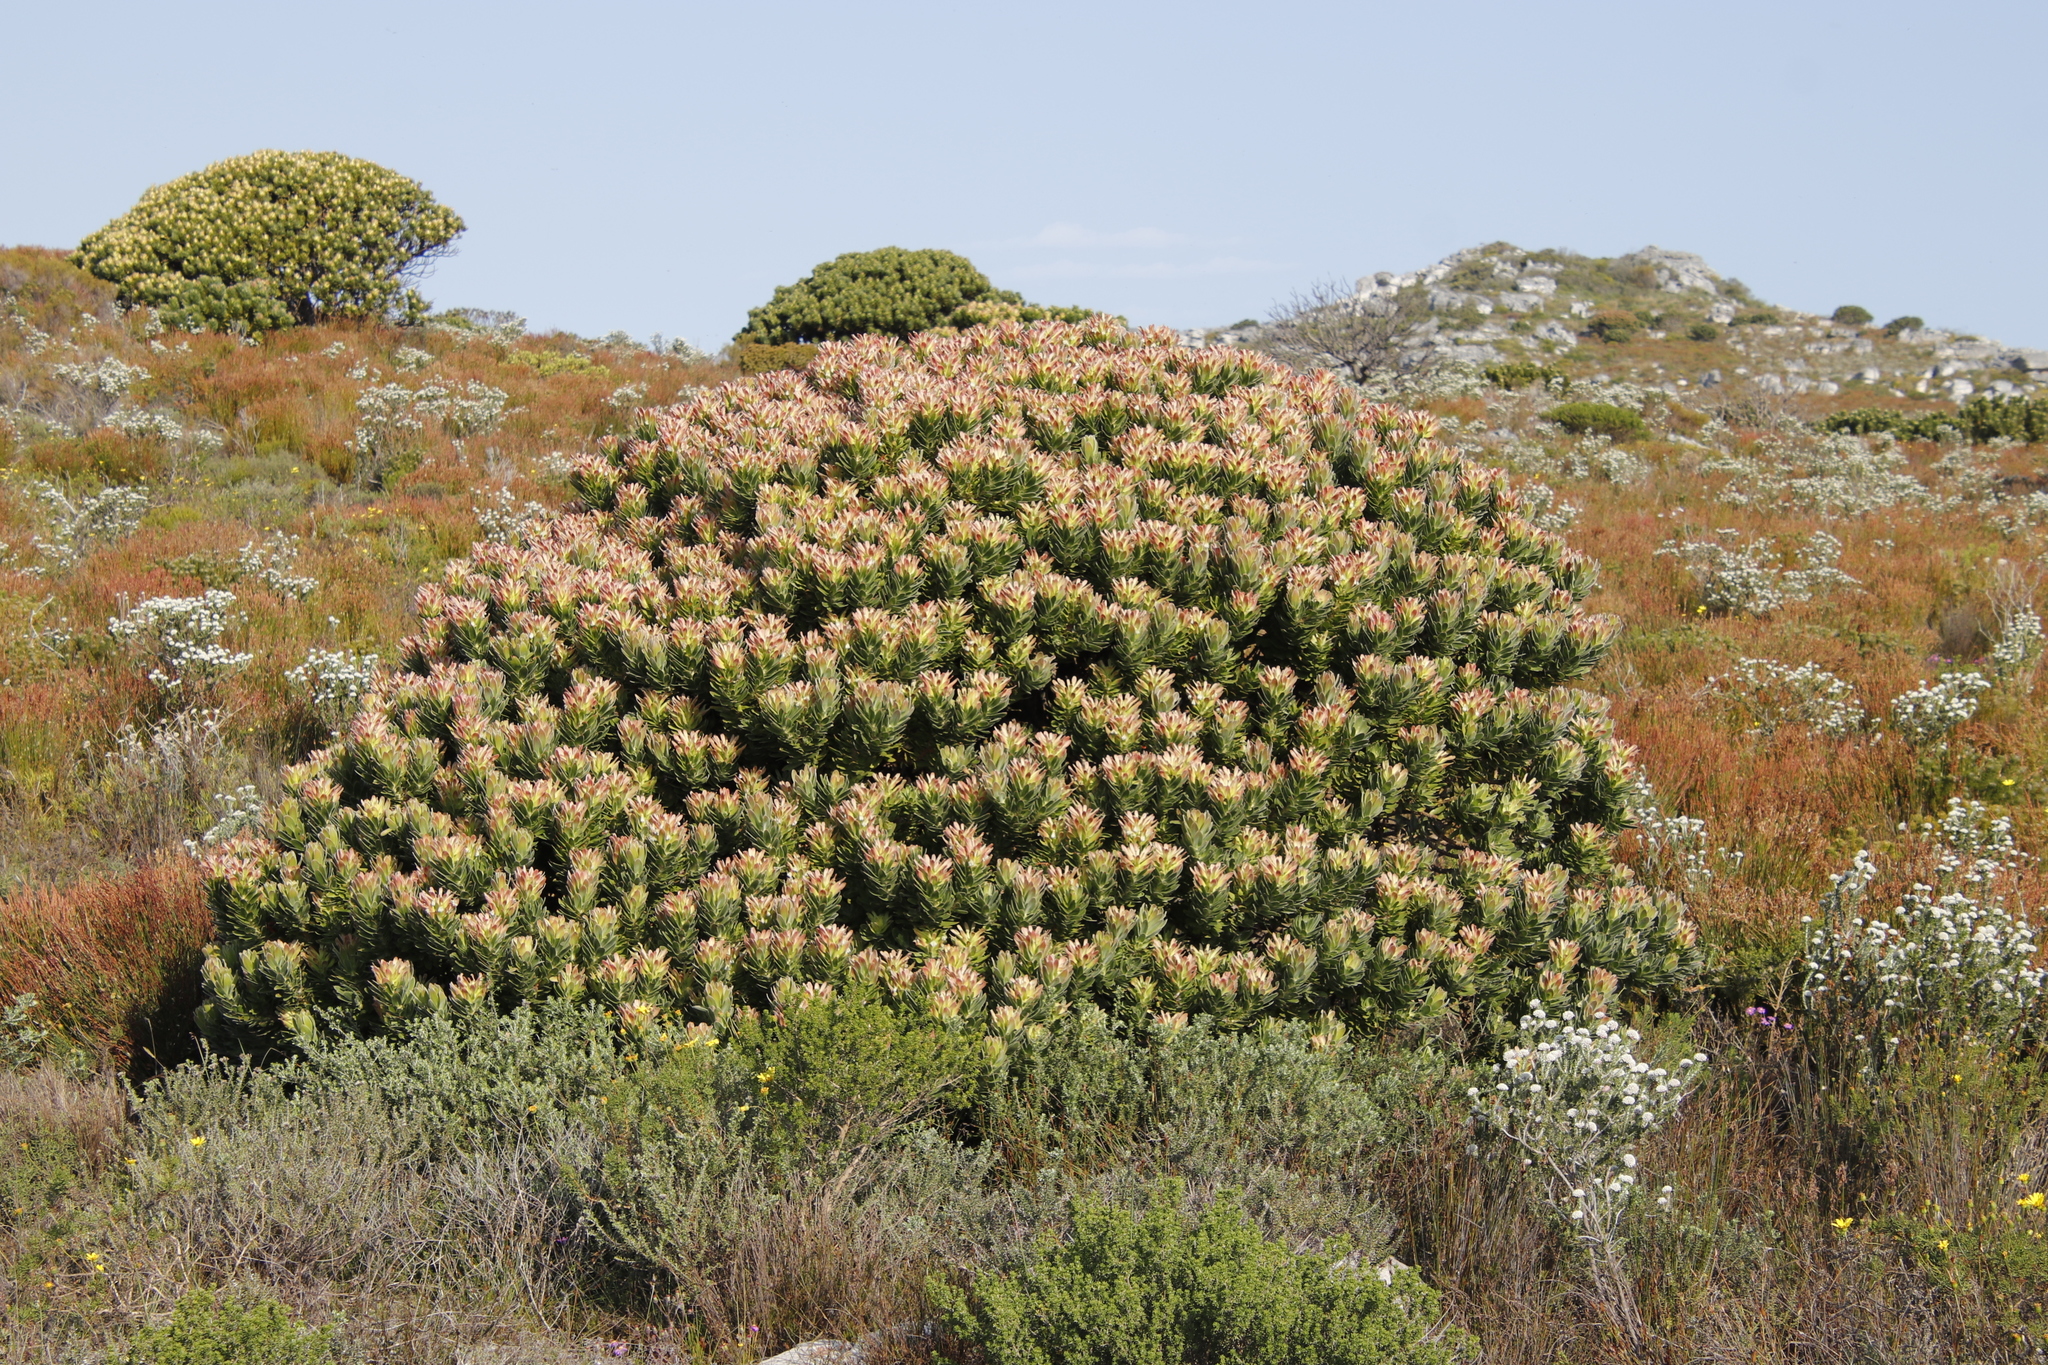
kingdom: Plantae
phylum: Tracheophyta
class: Magnoliopsida
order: Proteales
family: Proteaceae
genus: Mimetes
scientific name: Mimetes fimbriifolius
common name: Fringed bottlebrush
